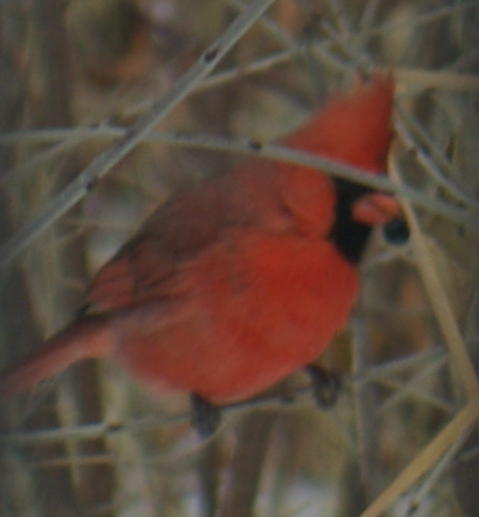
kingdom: Animalia
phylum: Chordata
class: Aves
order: Passeriformes
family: Cardinalidae
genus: Cardinalis
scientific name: Cardinalis cardinalis
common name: Northern cardinal
